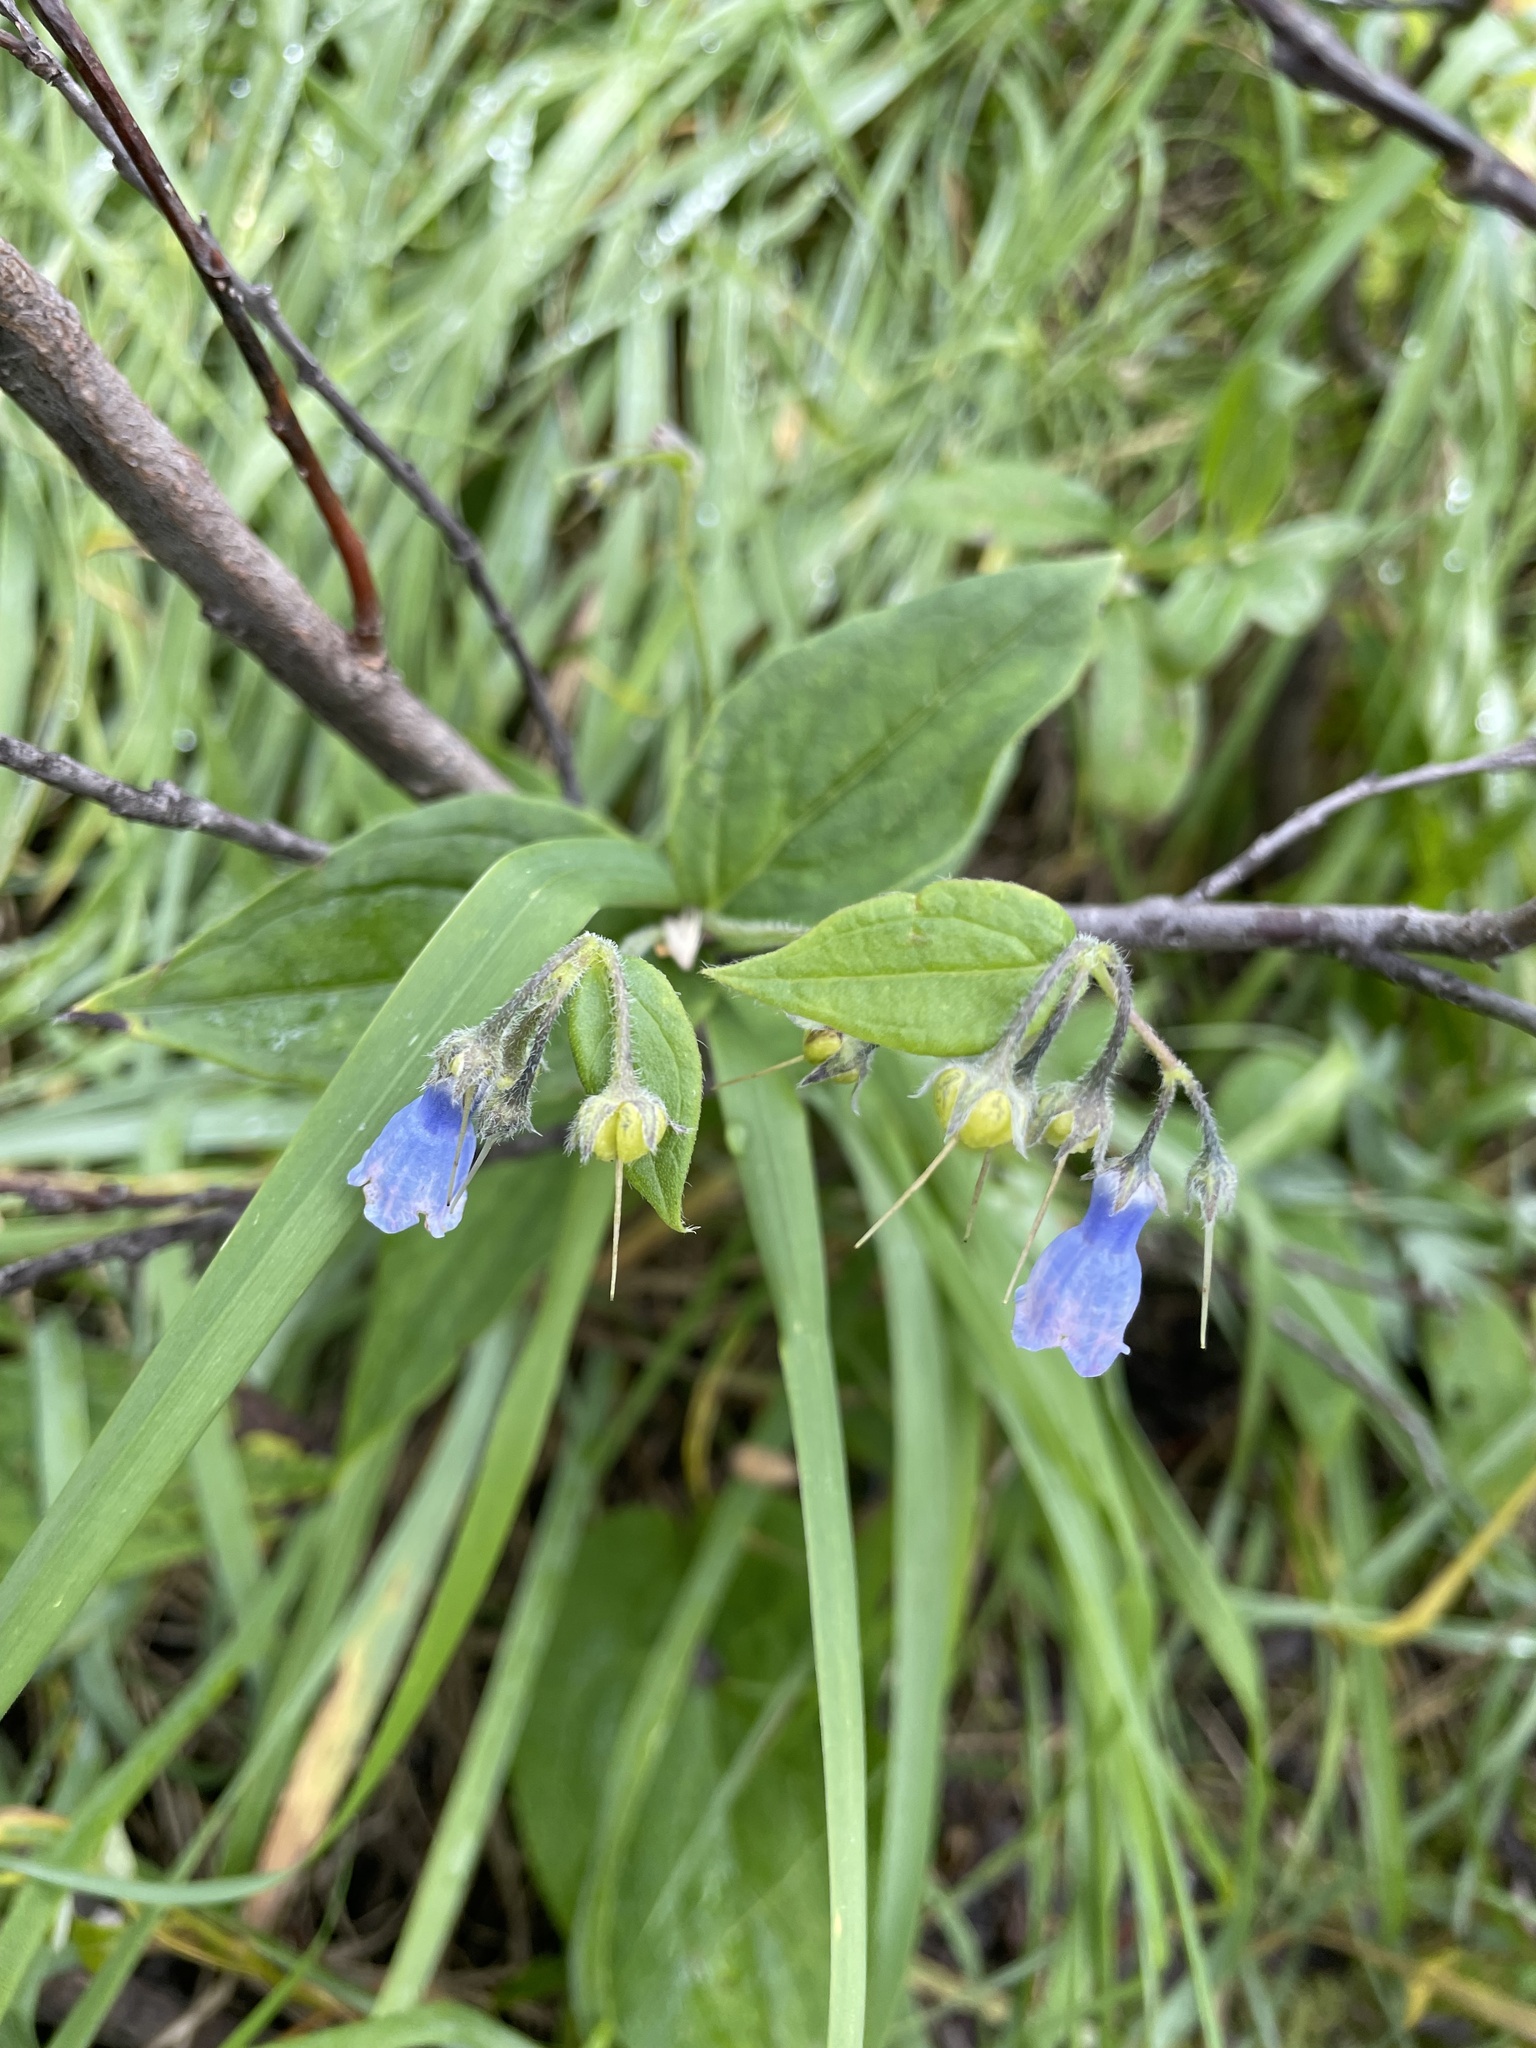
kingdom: Plantae
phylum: Tracheophyta
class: Magnoliopsida
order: Boraginales
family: Boraginaceae
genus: Mertensia
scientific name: Mertensia paniculata
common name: Panicled bluebells
